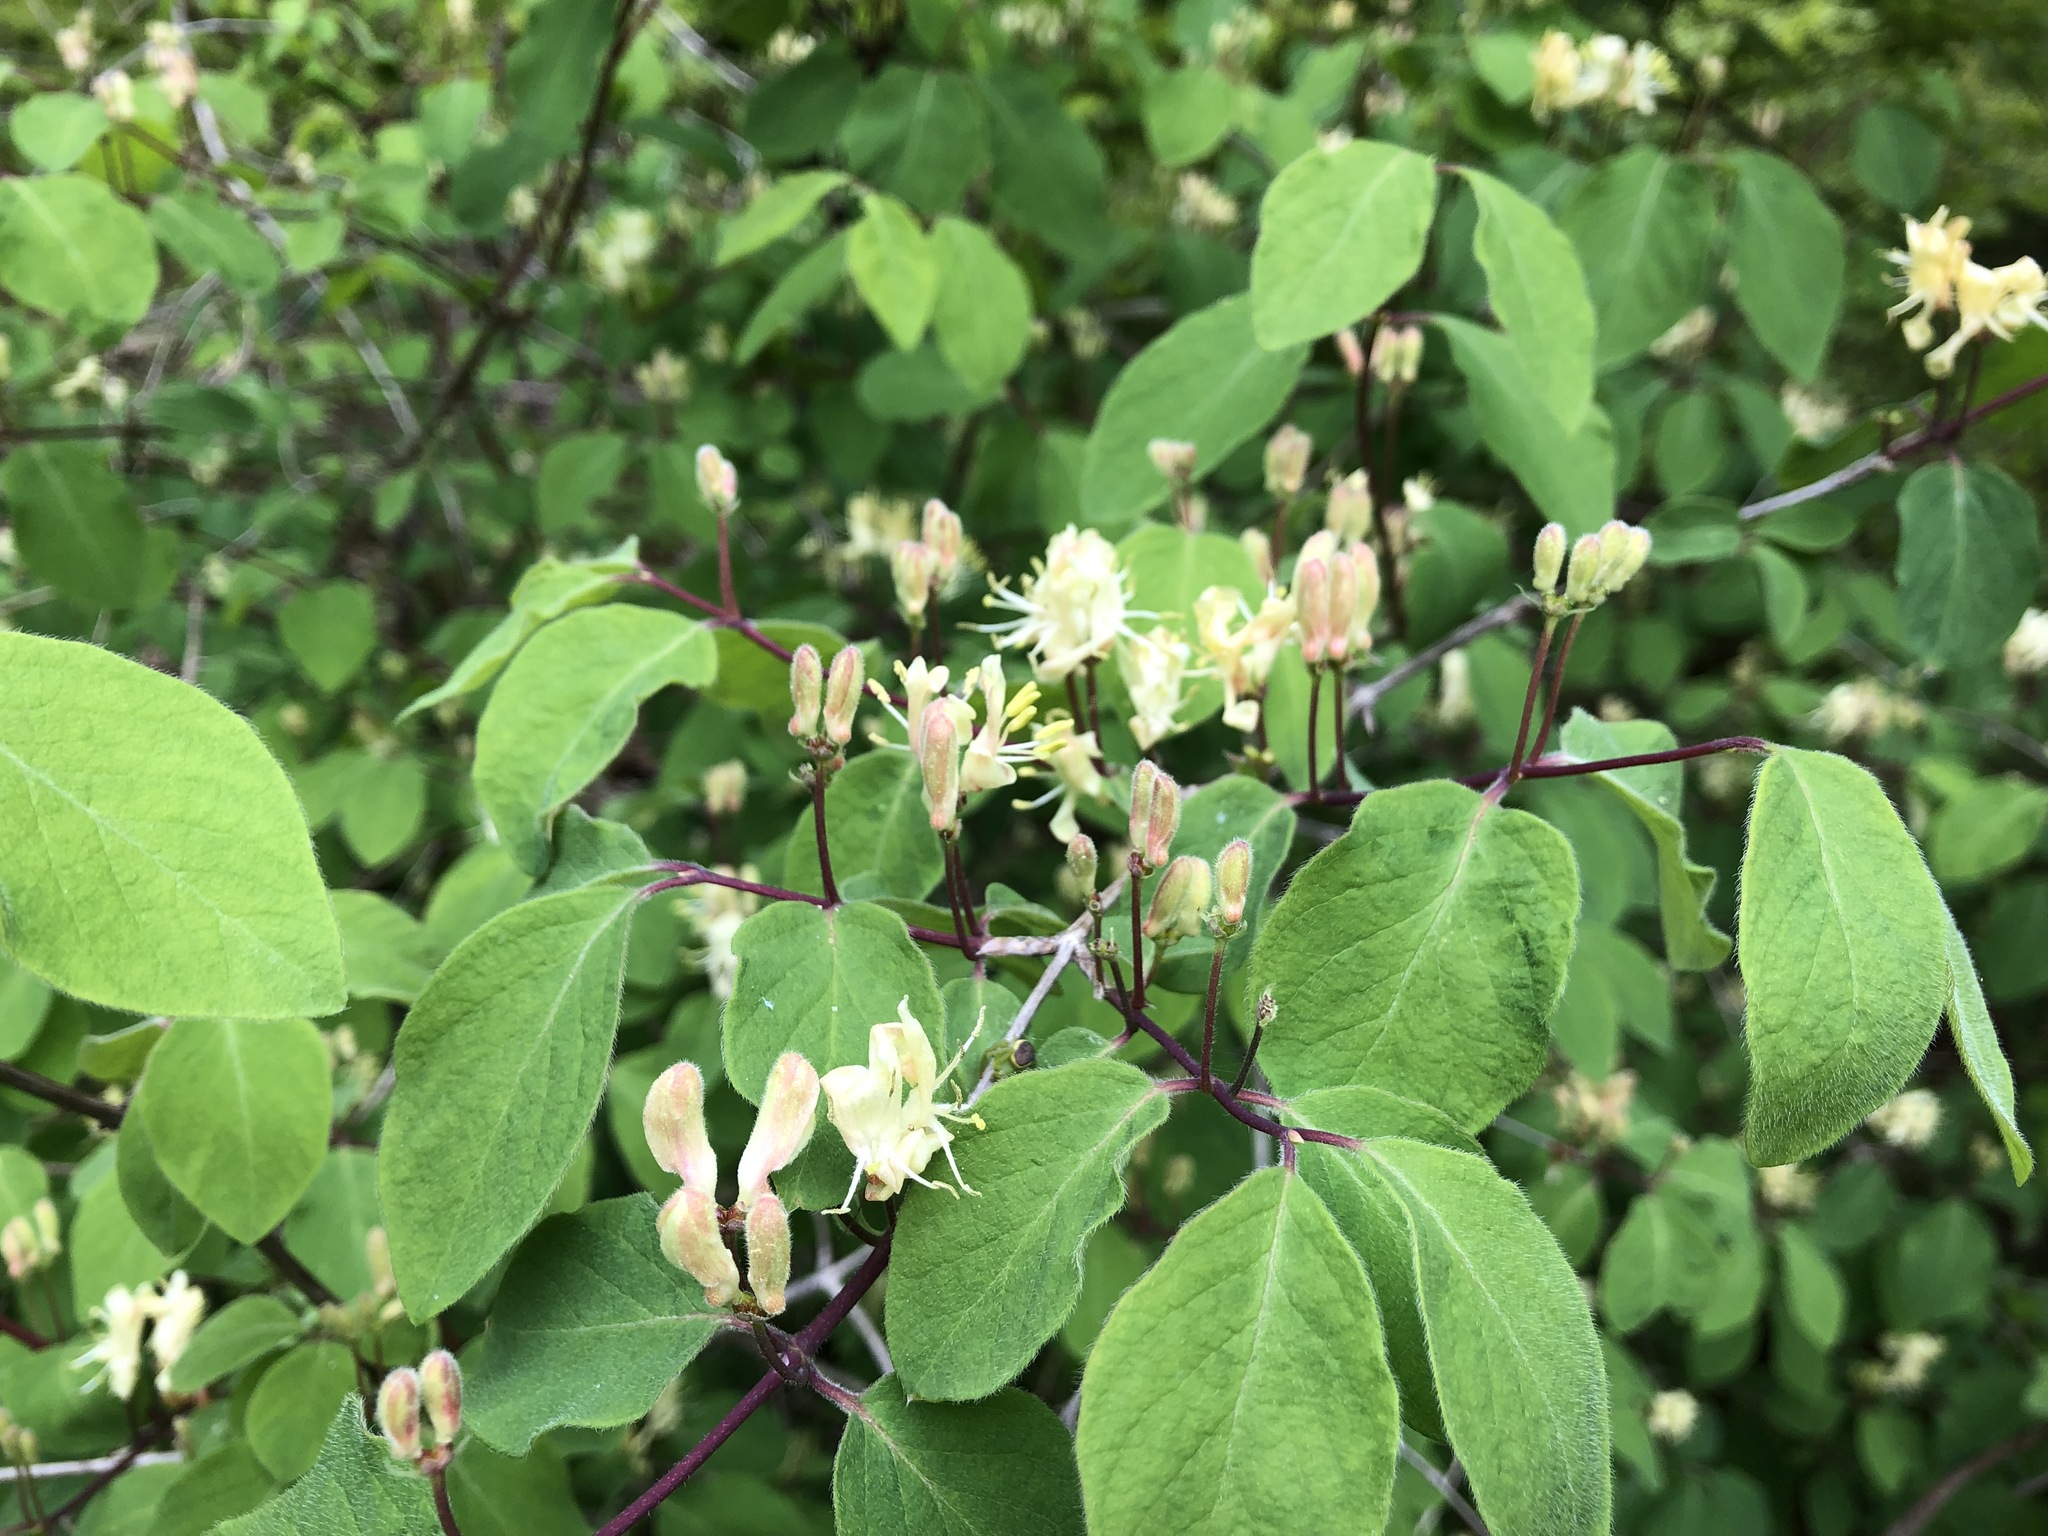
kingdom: Plantae
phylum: Tracheophyta
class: Magnoliopsida
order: Dipsacales
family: Caprifoliaceae
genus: Lonicera
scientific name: Lonicera xylosteum
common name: Fly honeysuckle
